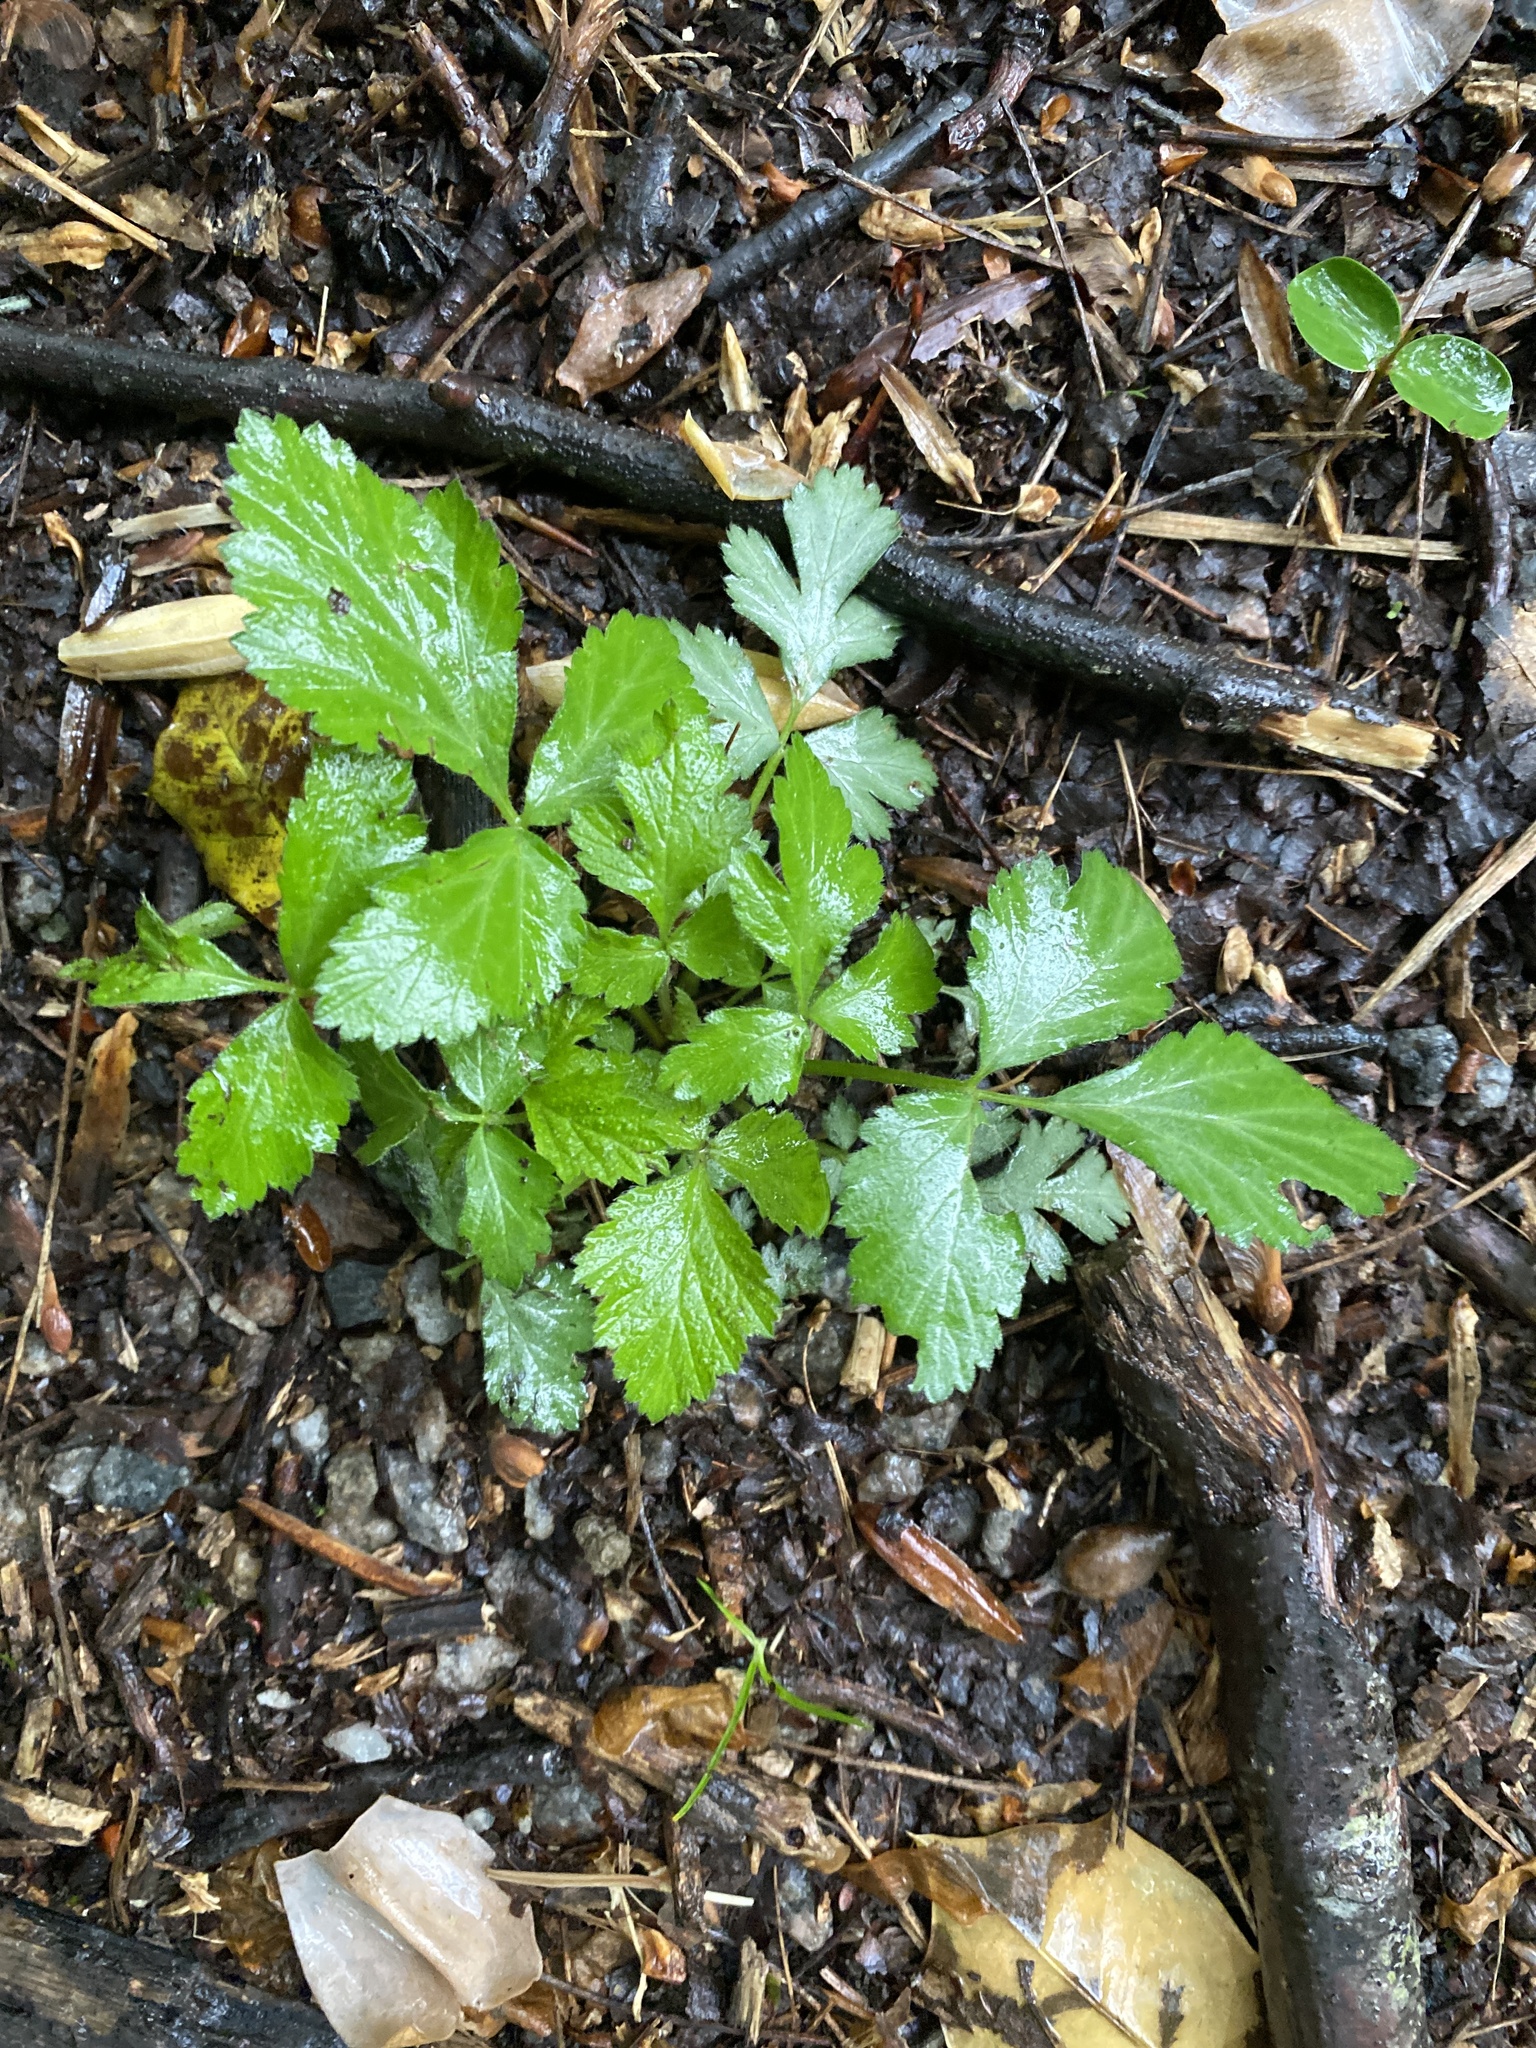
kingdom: Plantae
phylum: Tracheophyta
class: Magnoliopsida
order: Rosales
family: Rosaceae
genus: Geum
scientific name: Geum canadense
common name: White avens
